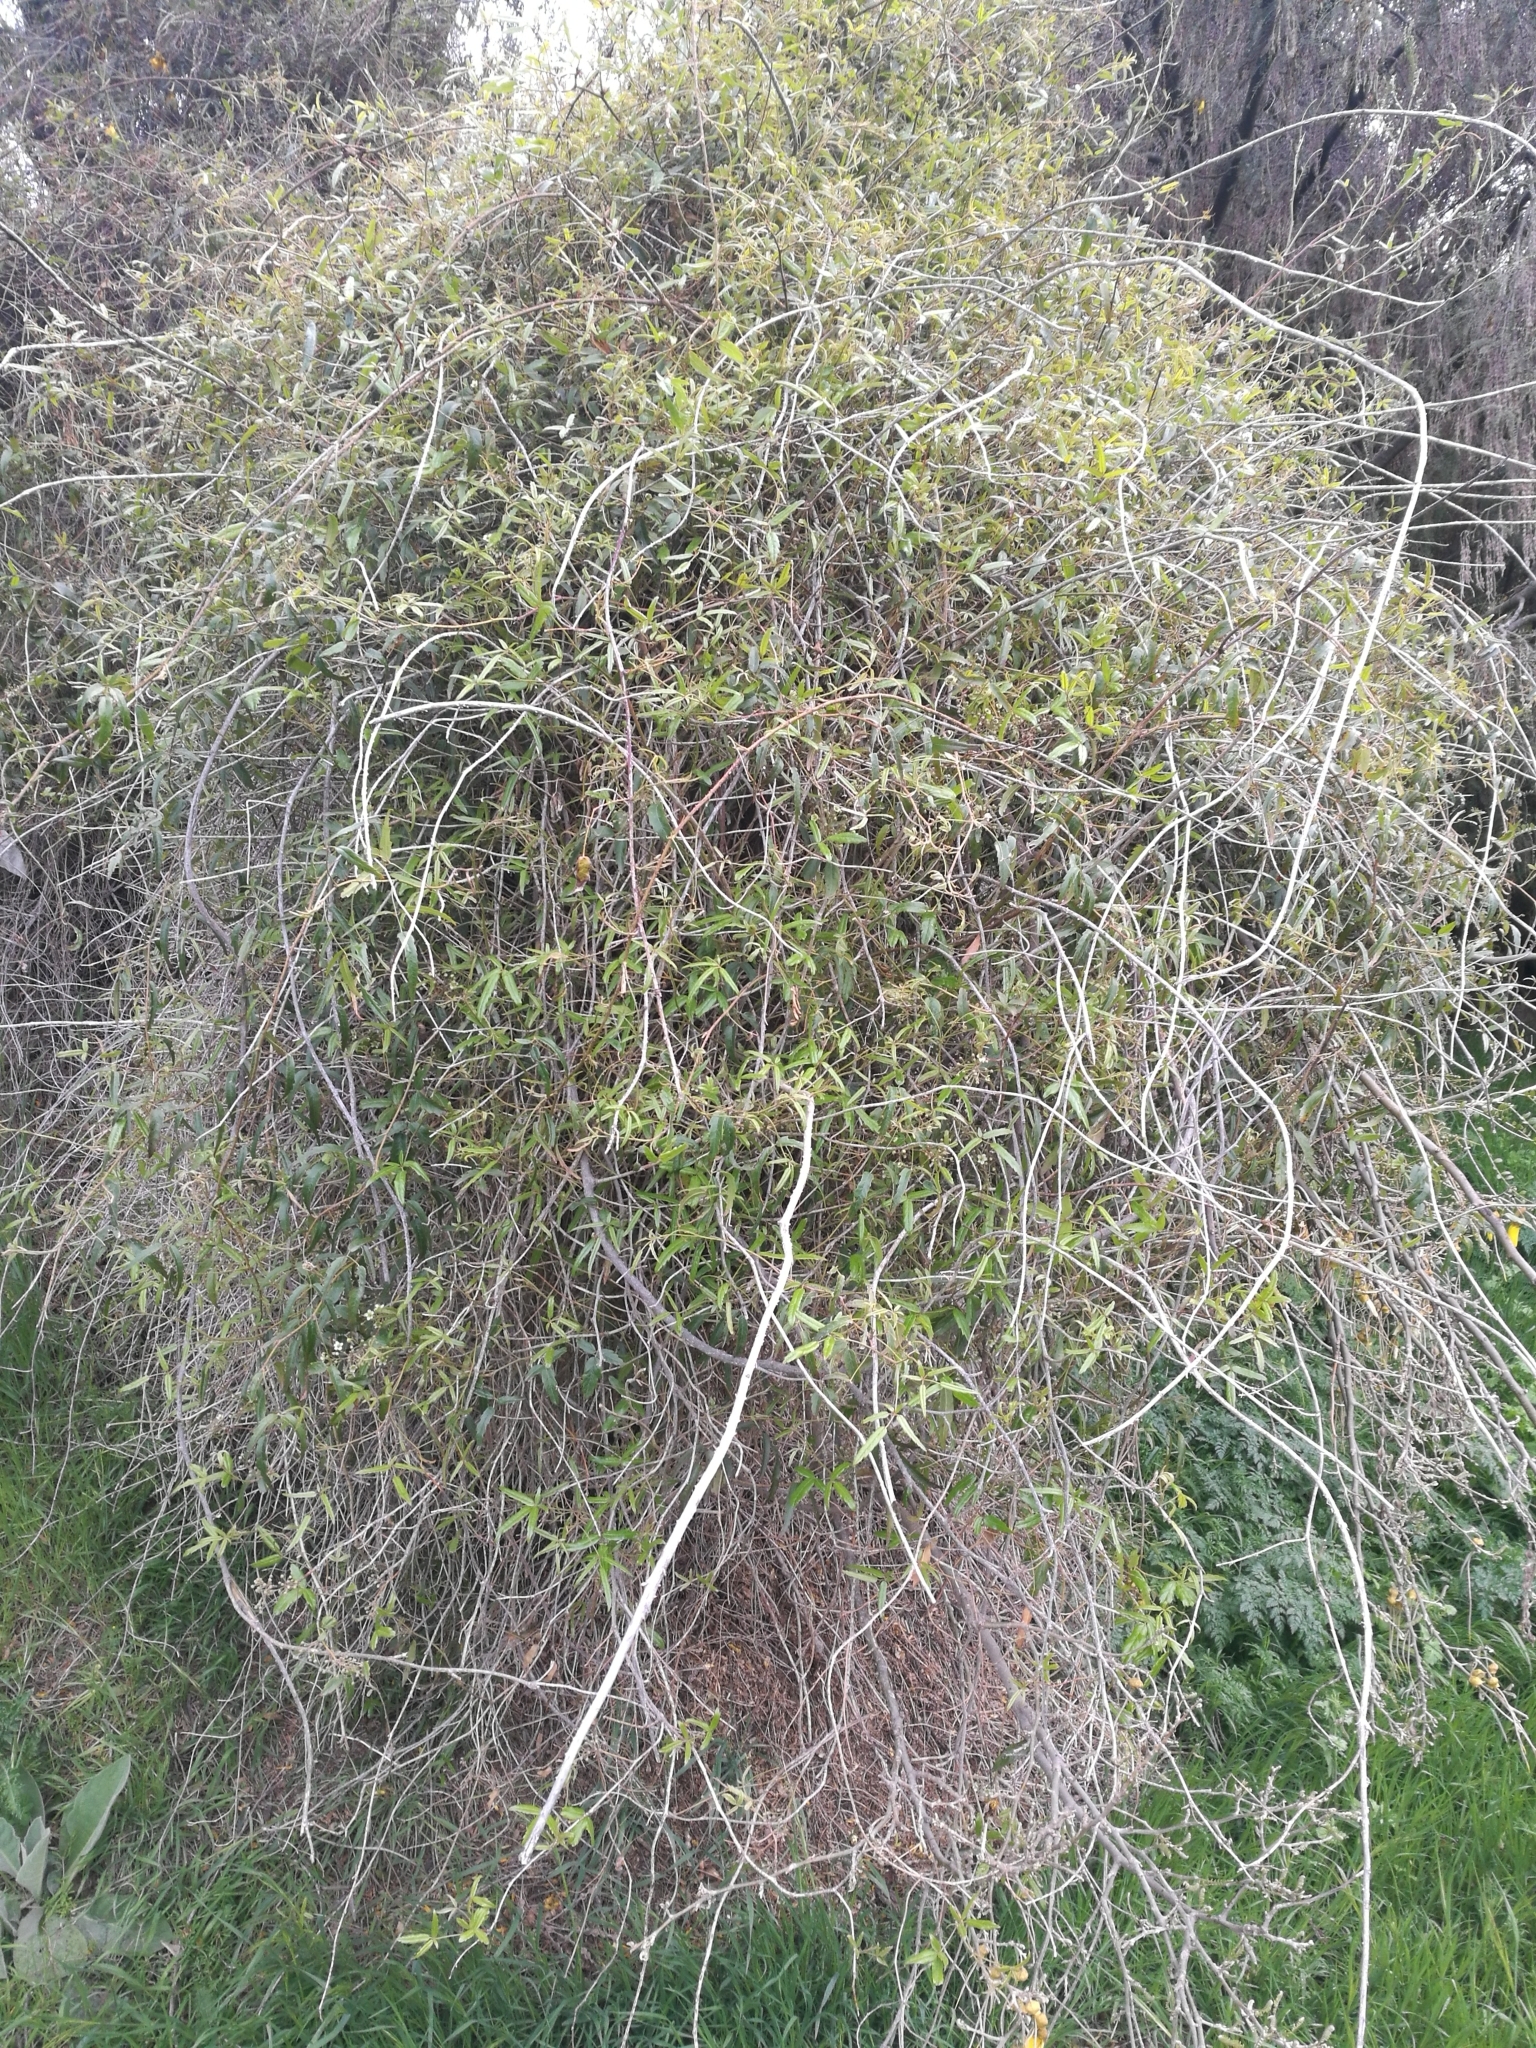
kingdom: Plantae
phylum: Tracheophyta
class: Magnoliopsida
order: Rosales
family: Rosaceae
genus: Rubus
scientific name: Rubus schmidelioides
